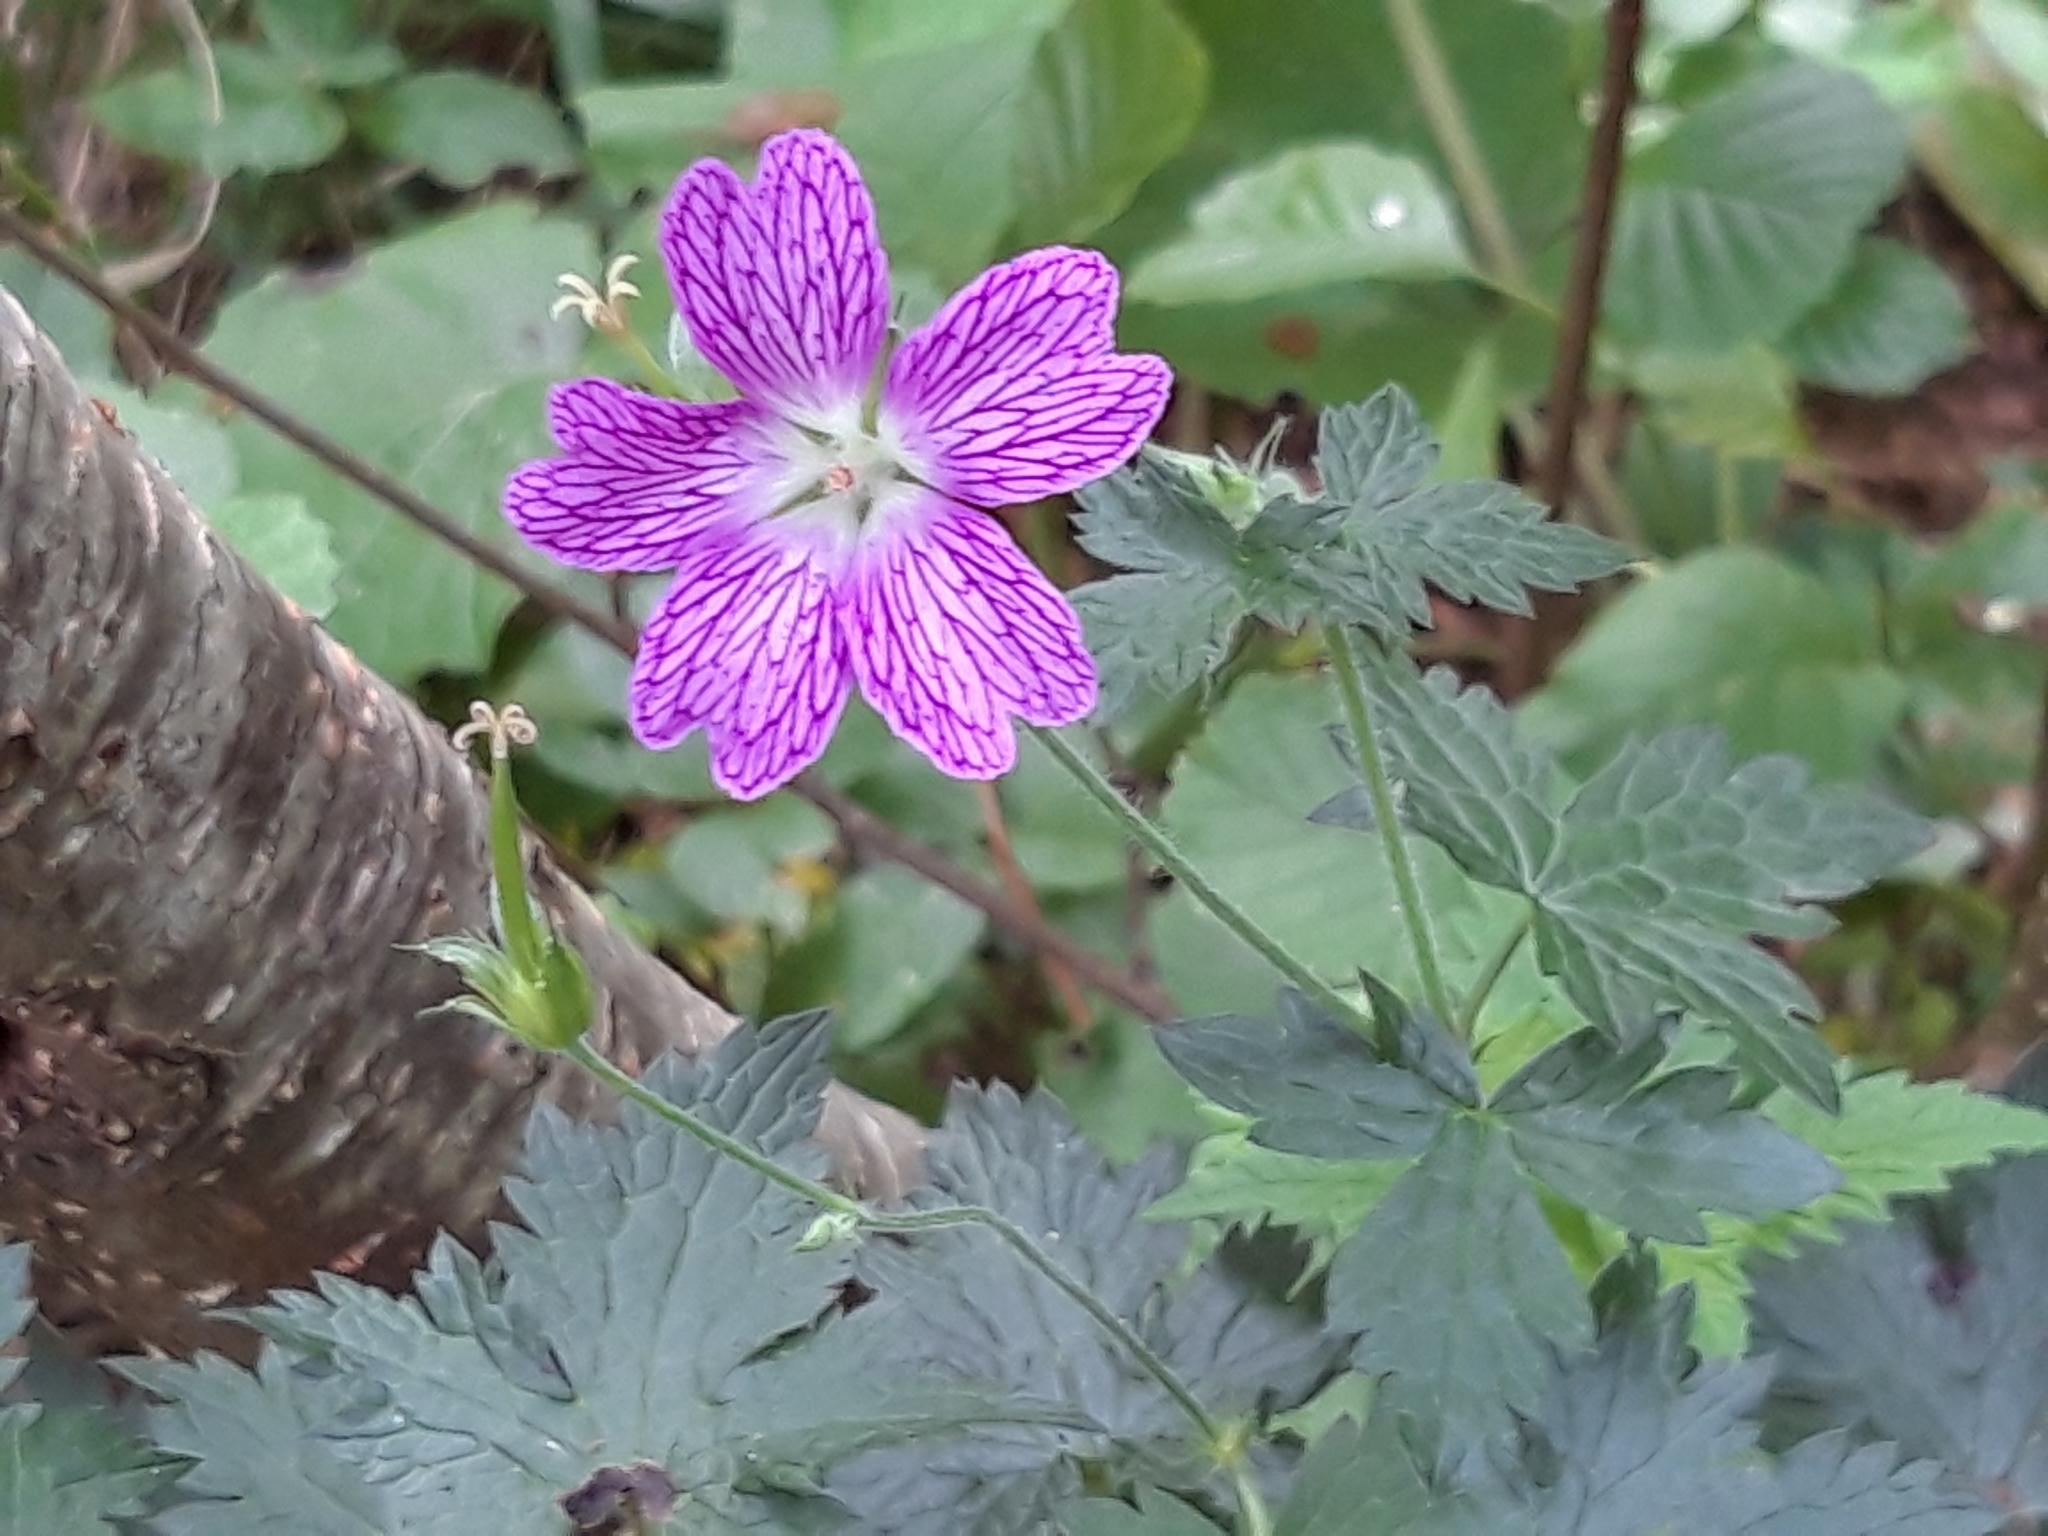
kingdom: Plantae
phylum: Tracheophyta
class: Magnoliopsida
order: Geraniales
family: Geraniaceae
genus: Geranium
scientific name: Geranium oxonianum
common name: Druce's crane's-bill
